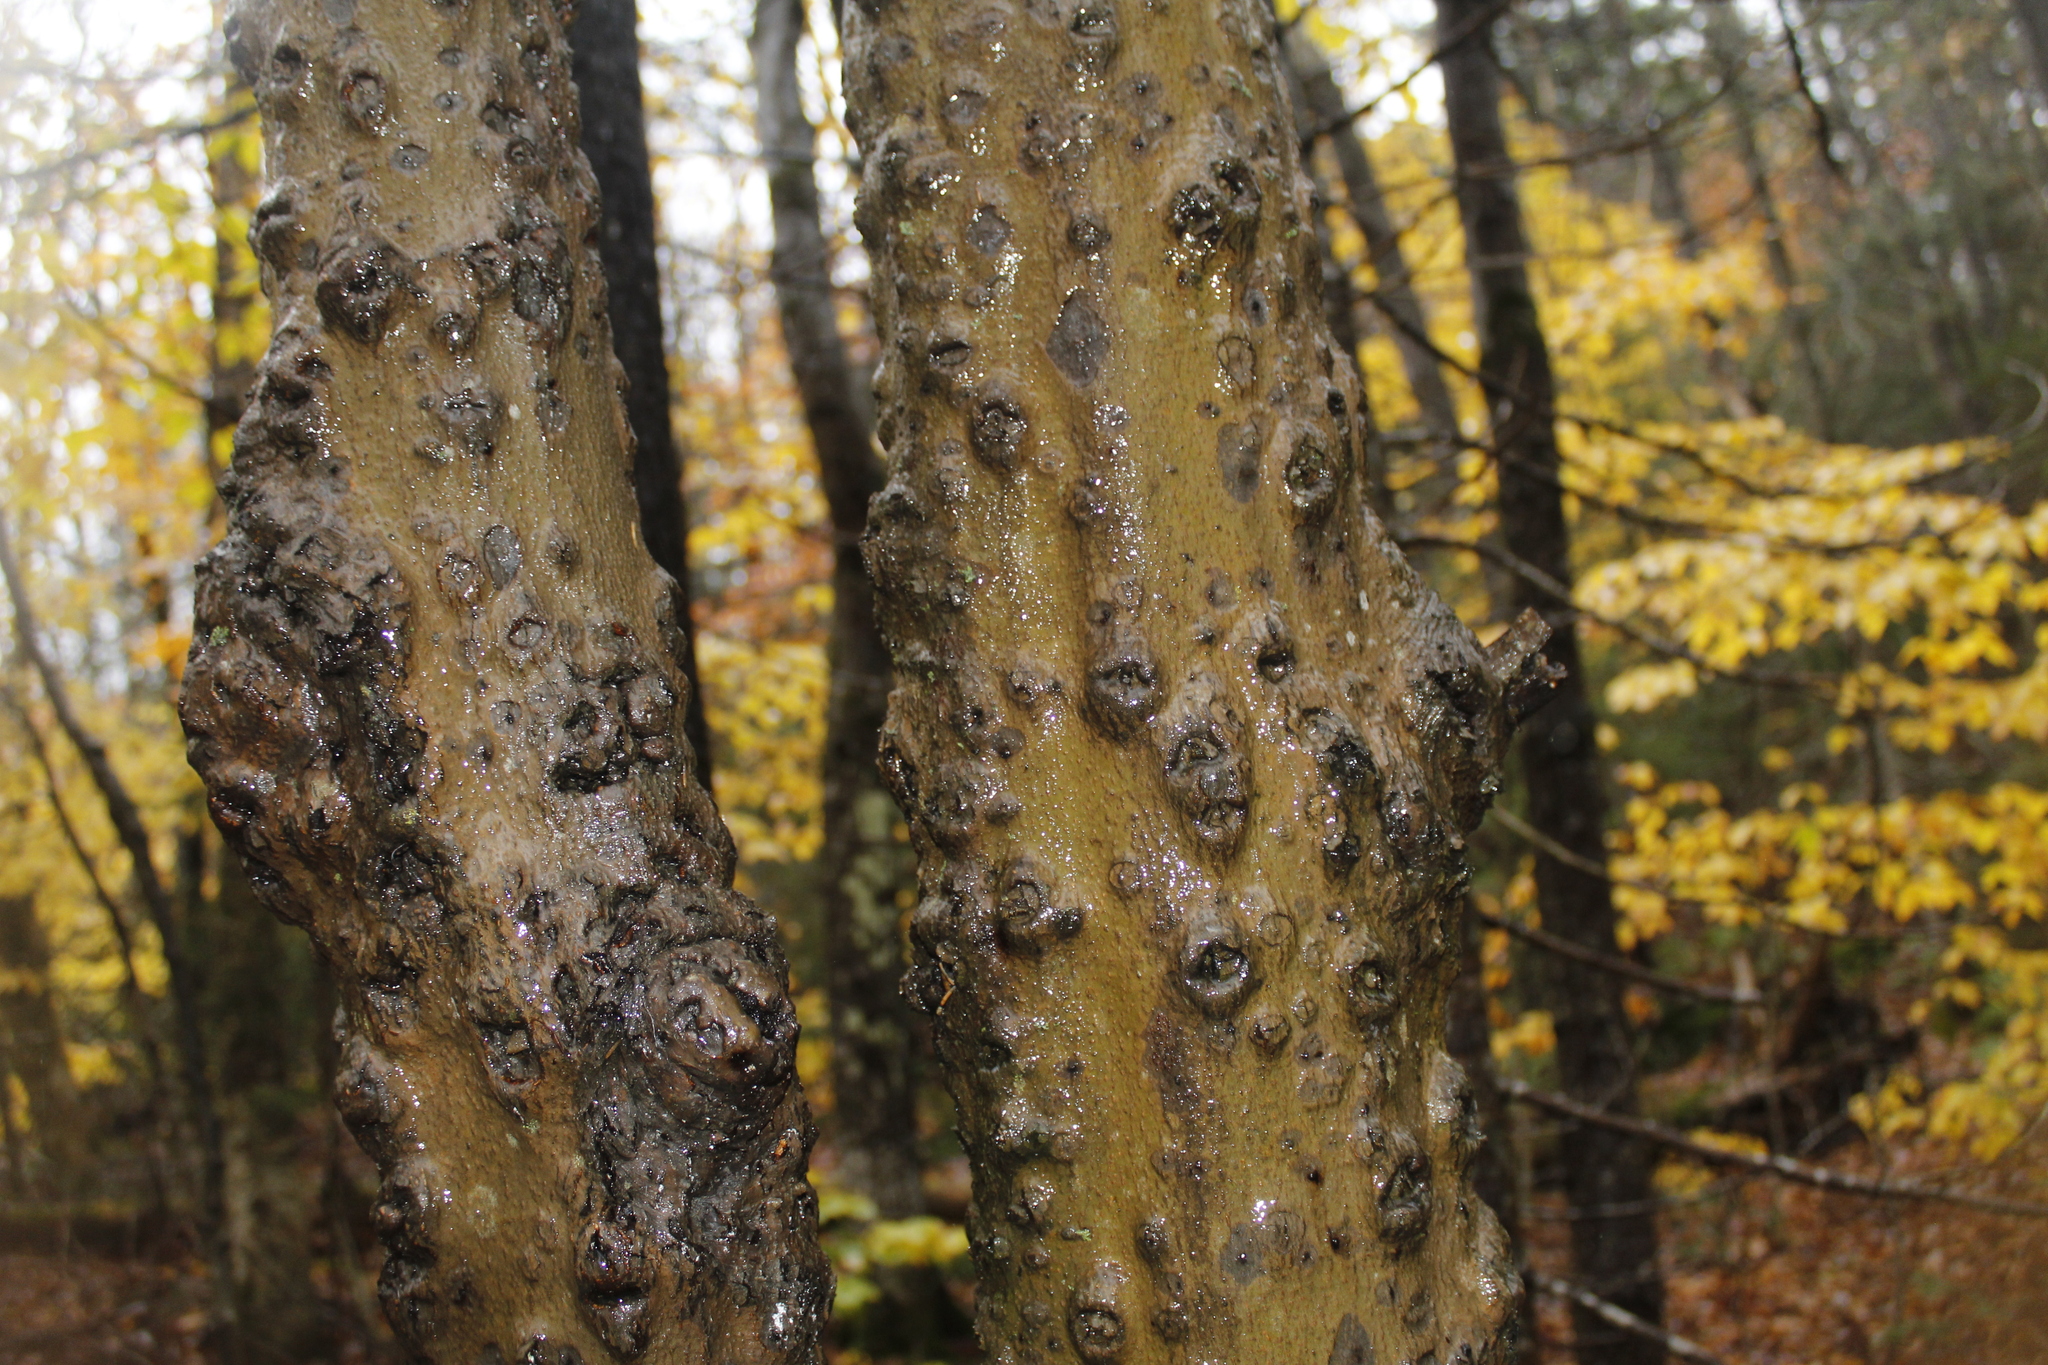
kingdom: Plantae
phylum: Tracheophyta
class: Magnoliopsida
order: Fagales
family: Fagaceae
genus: Fagus
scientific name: Fagus grandifolia
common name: American beech
